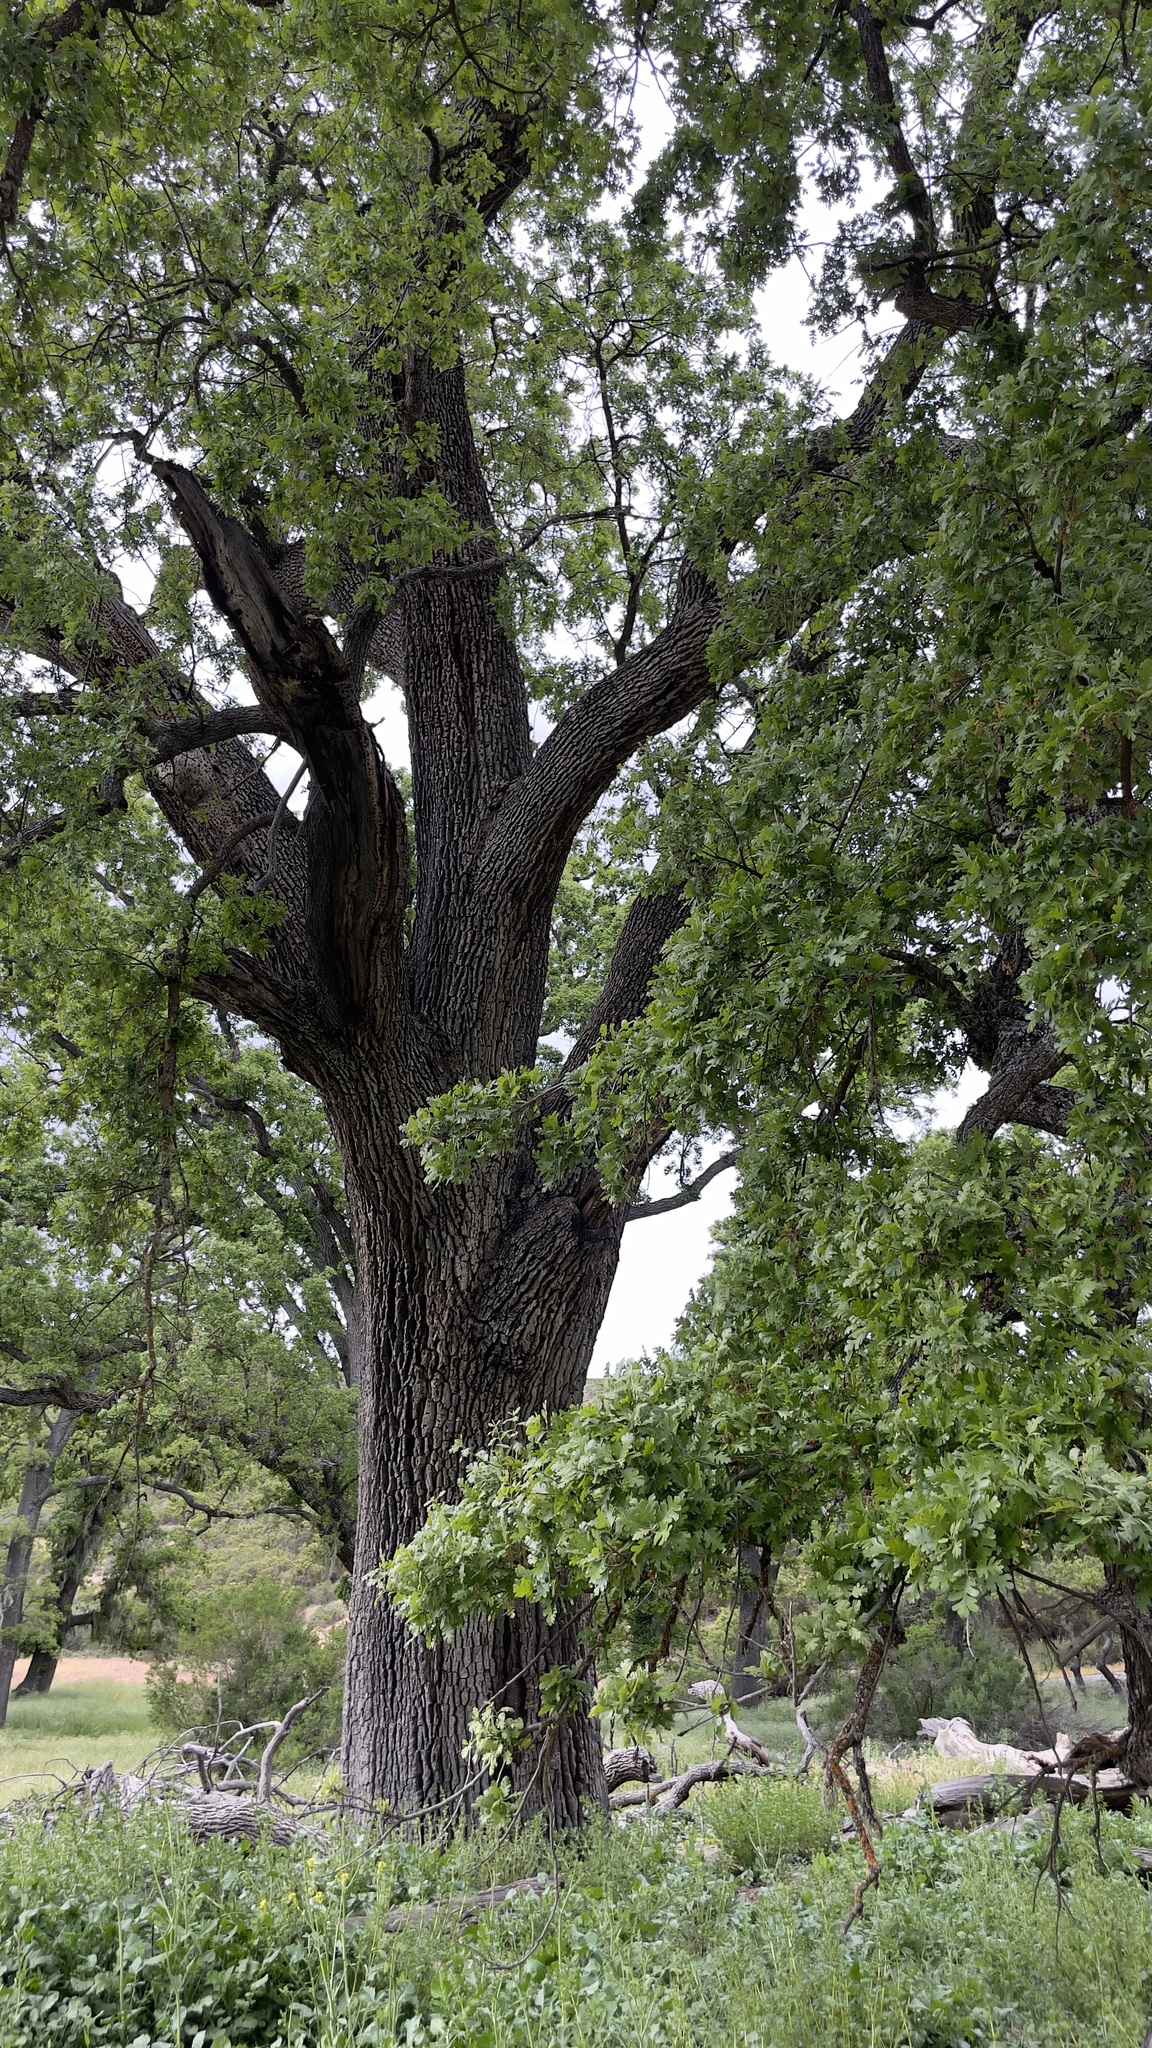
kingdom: Plantae
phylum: Tracheophyta
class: Magnoliopsida
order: Fagales
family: Fagaceae
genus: Quercus
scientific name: Quercus
